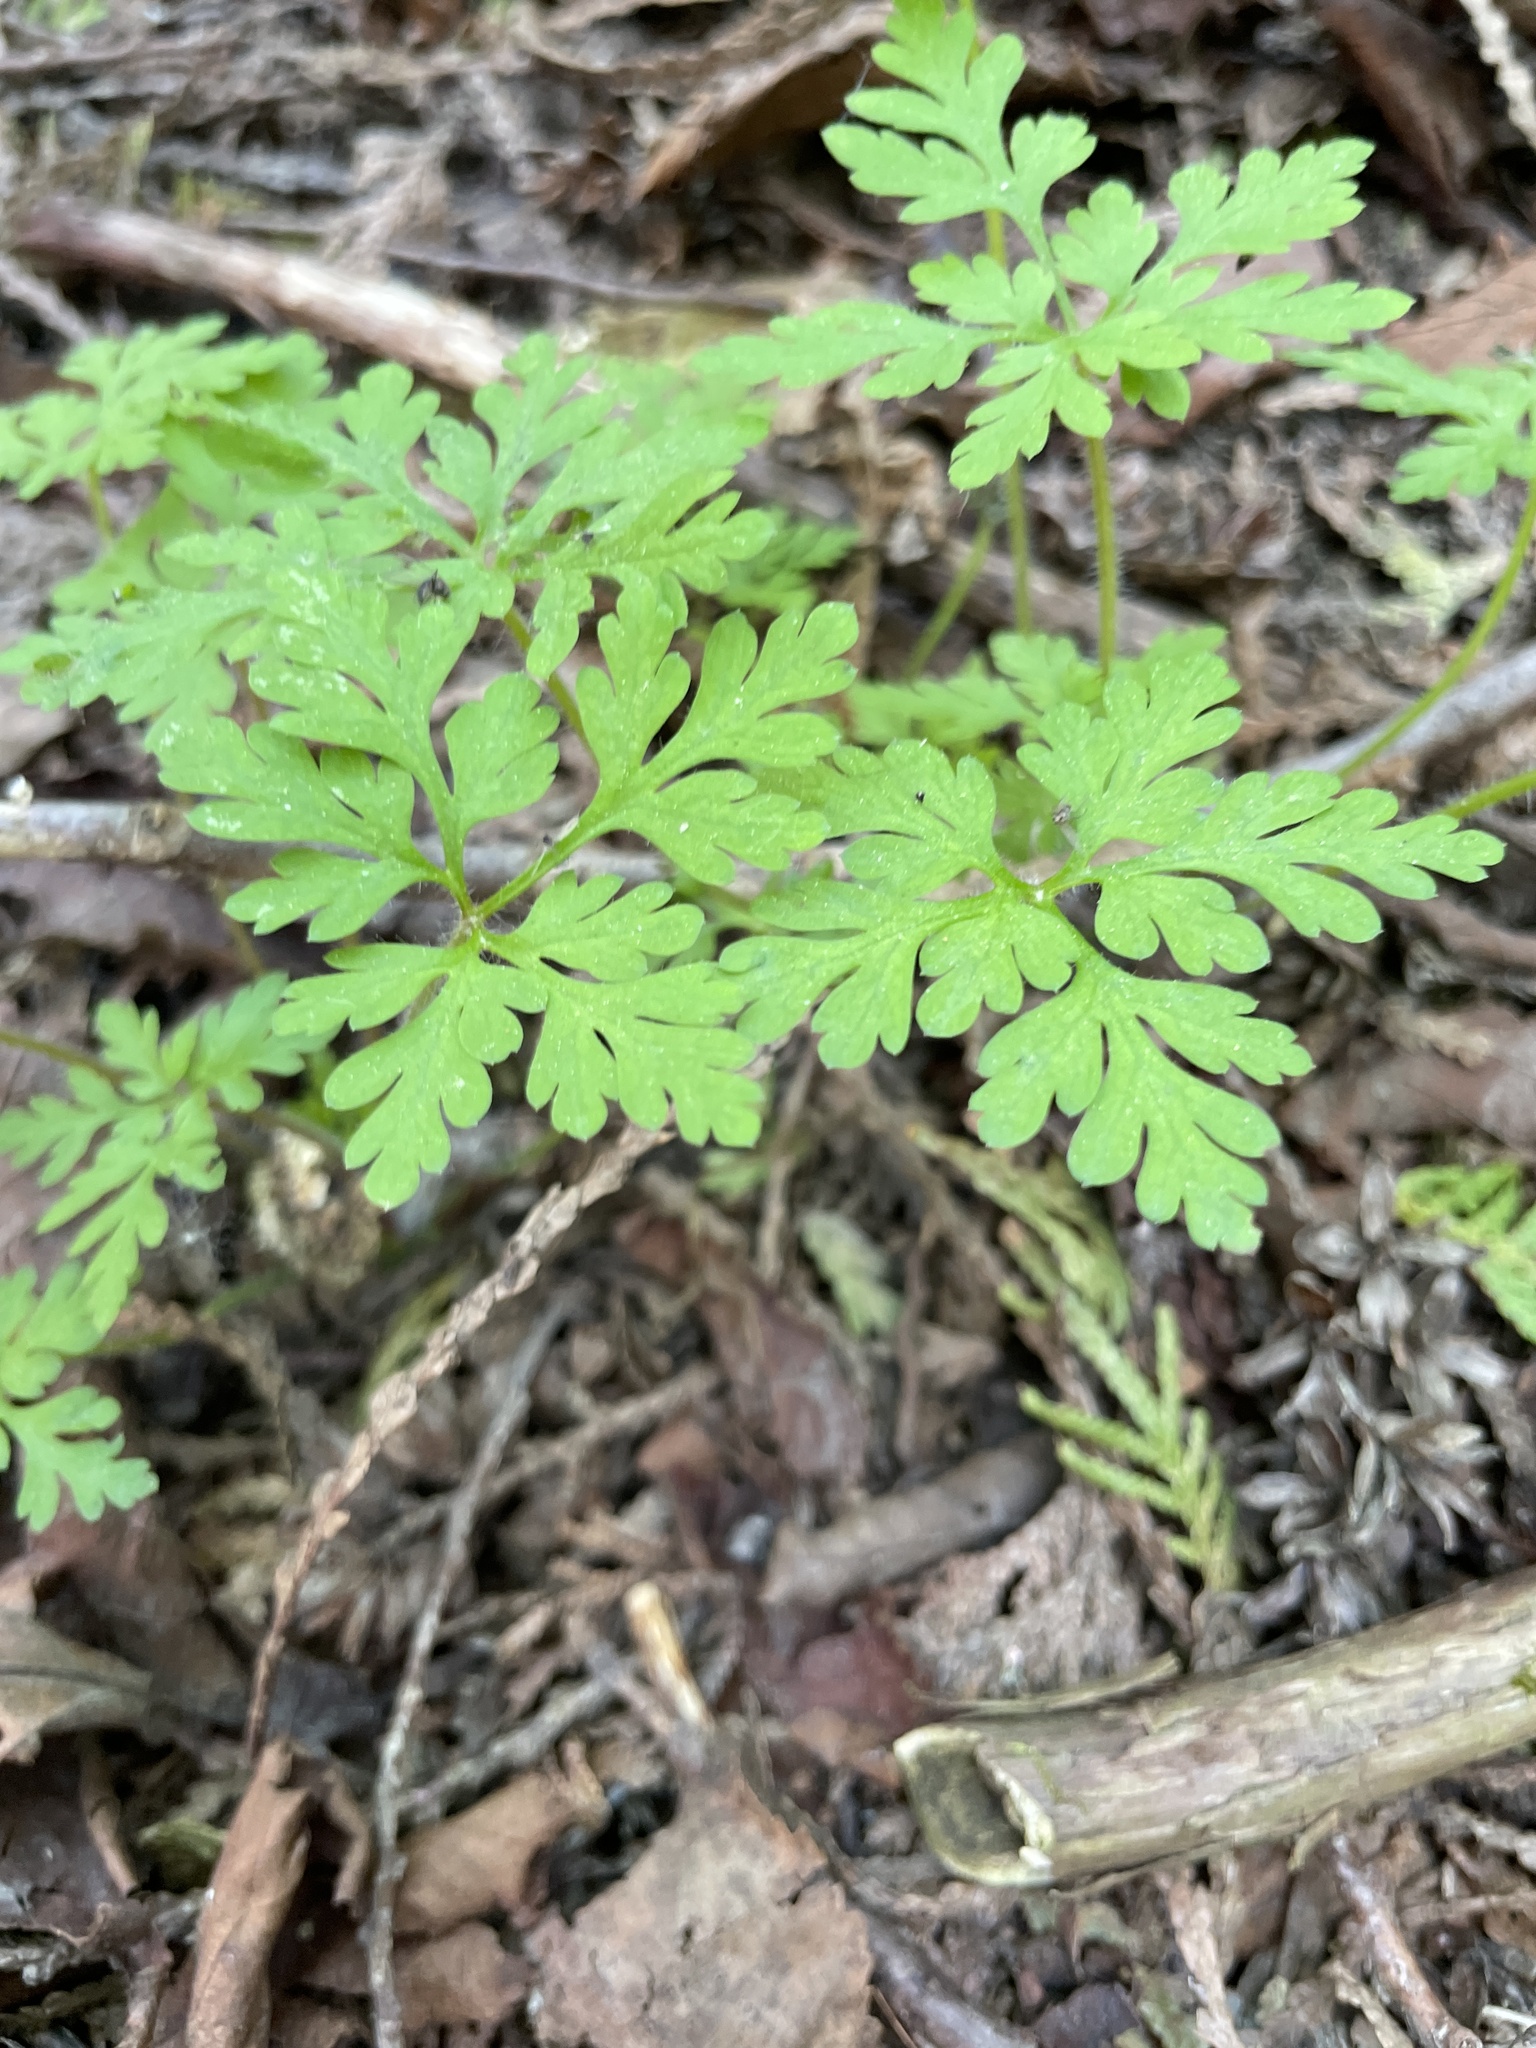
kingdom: Plantae
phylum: Tracheophyta
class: Magnoliopsida
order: Geraniales
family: Geraniaceae
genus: Geranium
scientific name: Geranium robertianum
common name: Herb-robert
